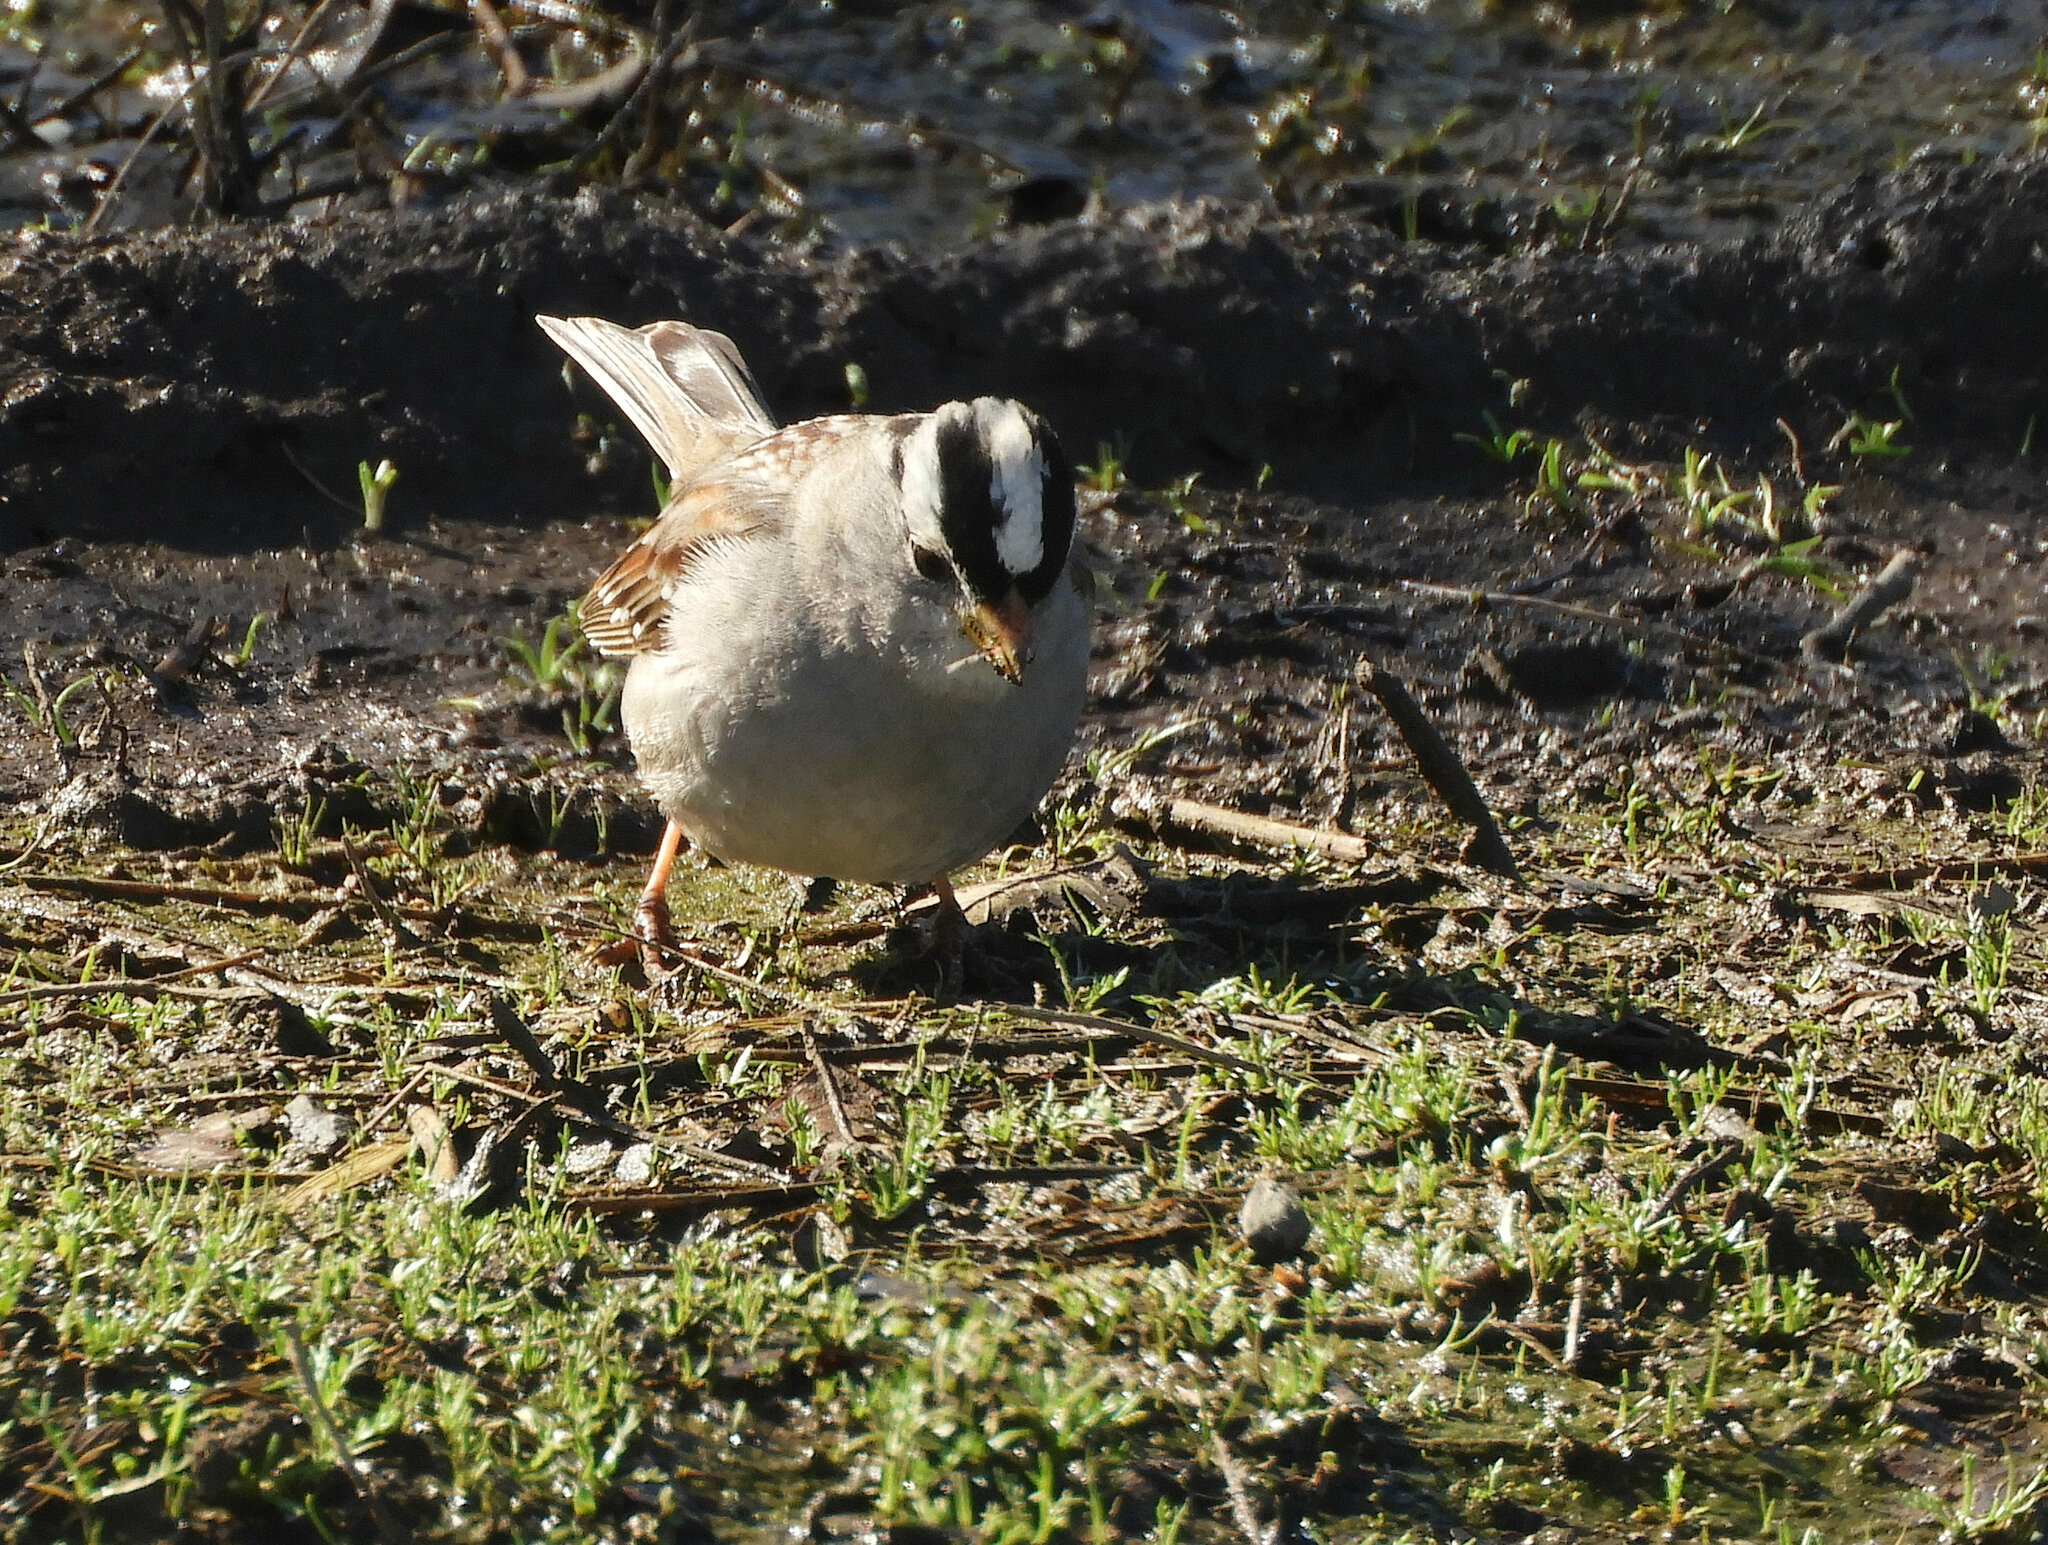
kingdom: Animalia
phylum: Chordata
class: Aves
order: Passeriformes
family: Passerellidae
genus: Zonotrichia
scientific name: Zonotrichia leucophrys
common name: White-crowned sparrow
